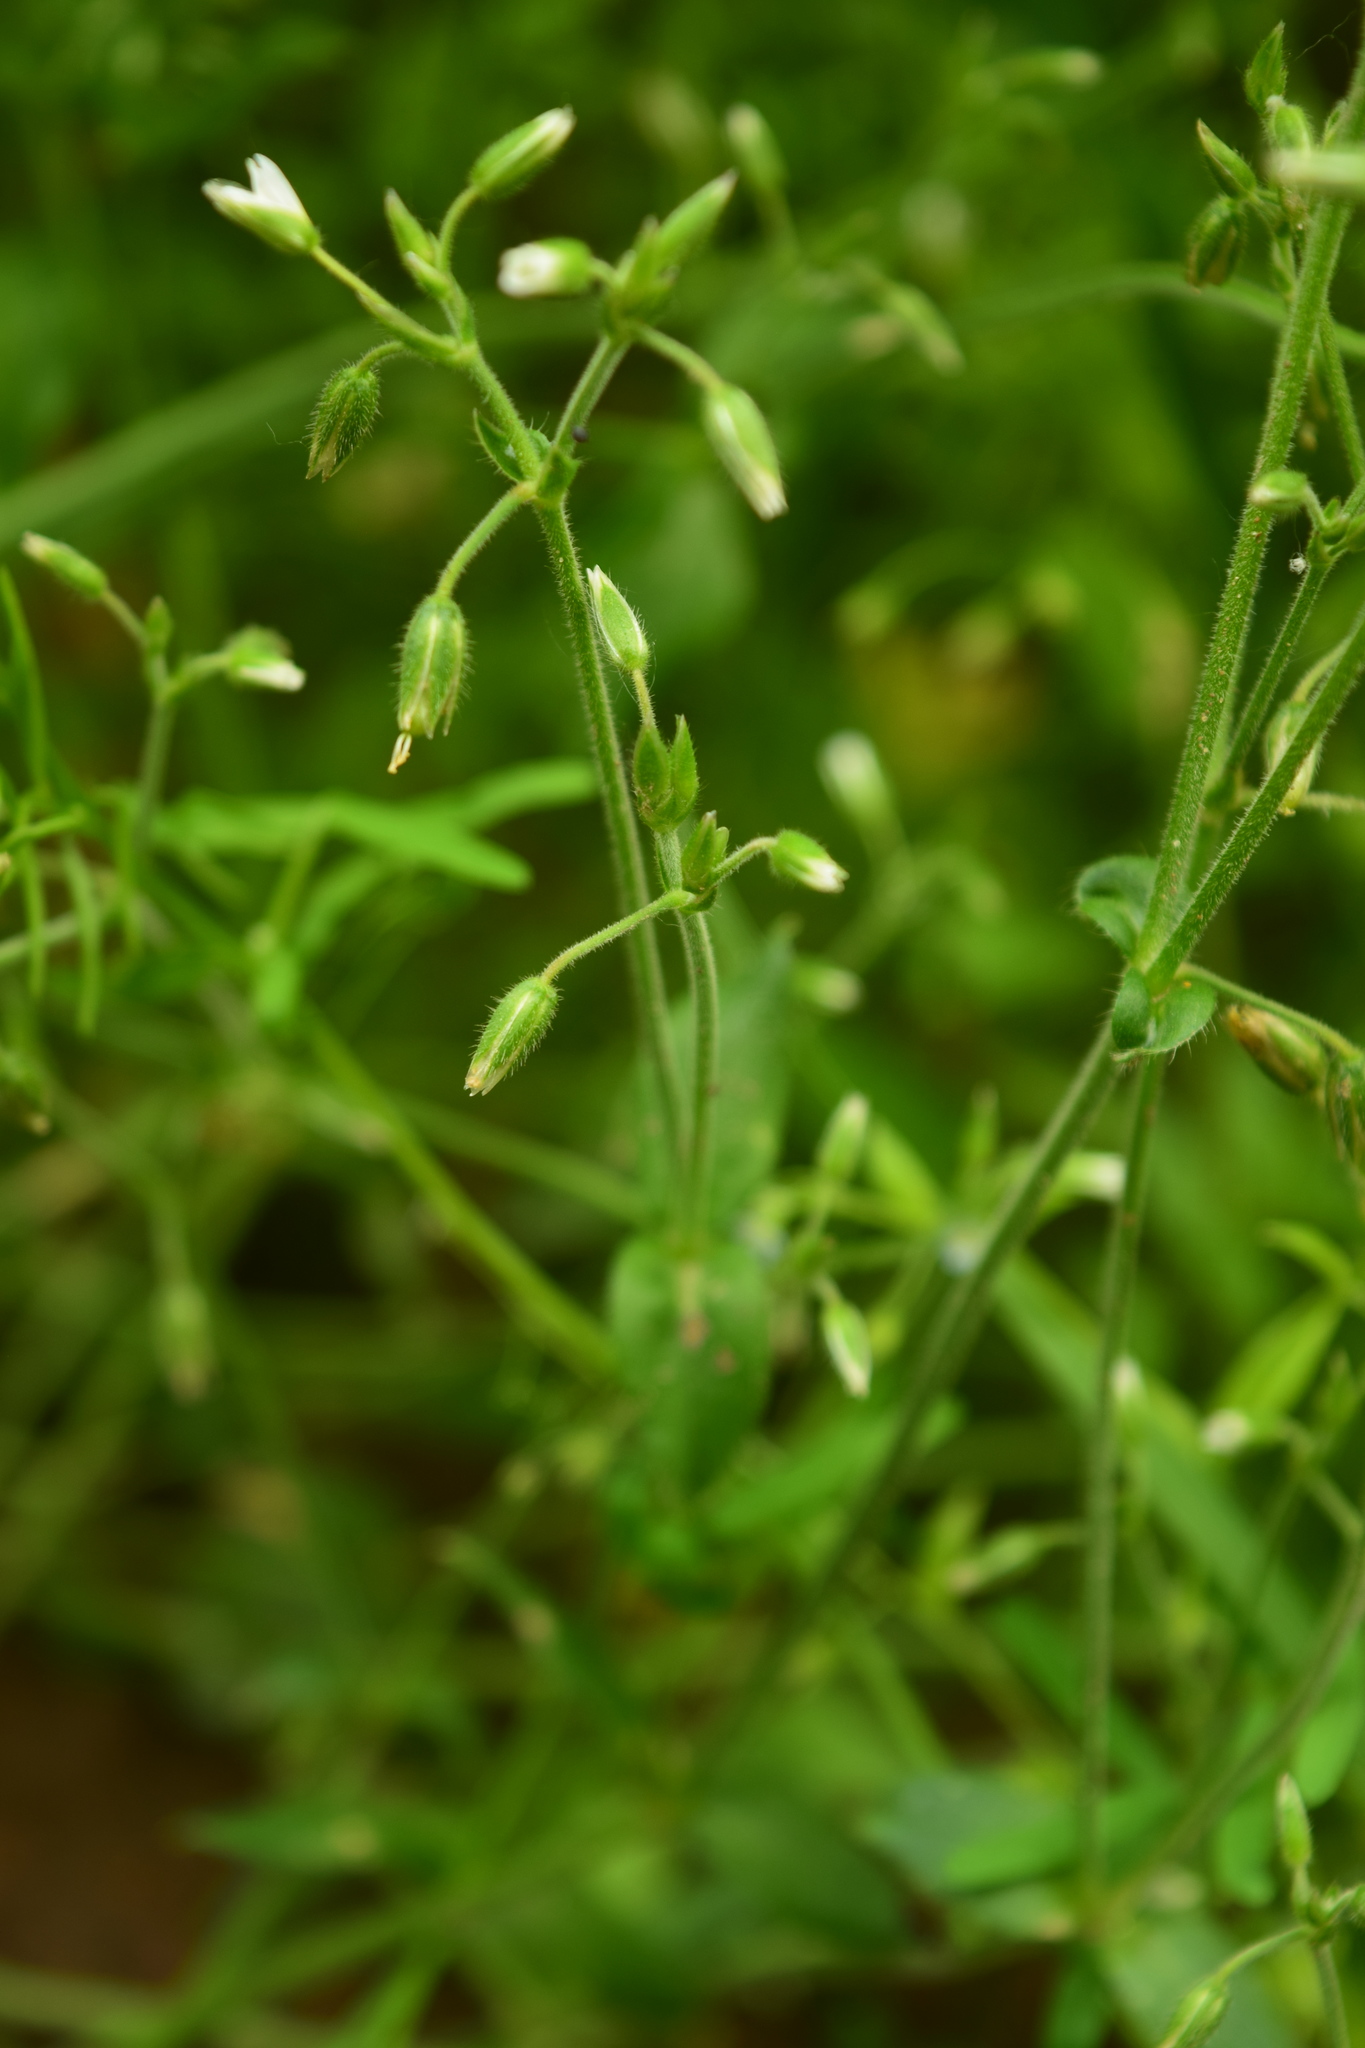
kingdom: Plantae
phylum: Tracheophyta
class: Magnoliopsida
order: Caryophyllales
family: Caryophyllaceae
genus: Cerastium
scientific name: Cerastium holosteoides
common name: Big chickweed
